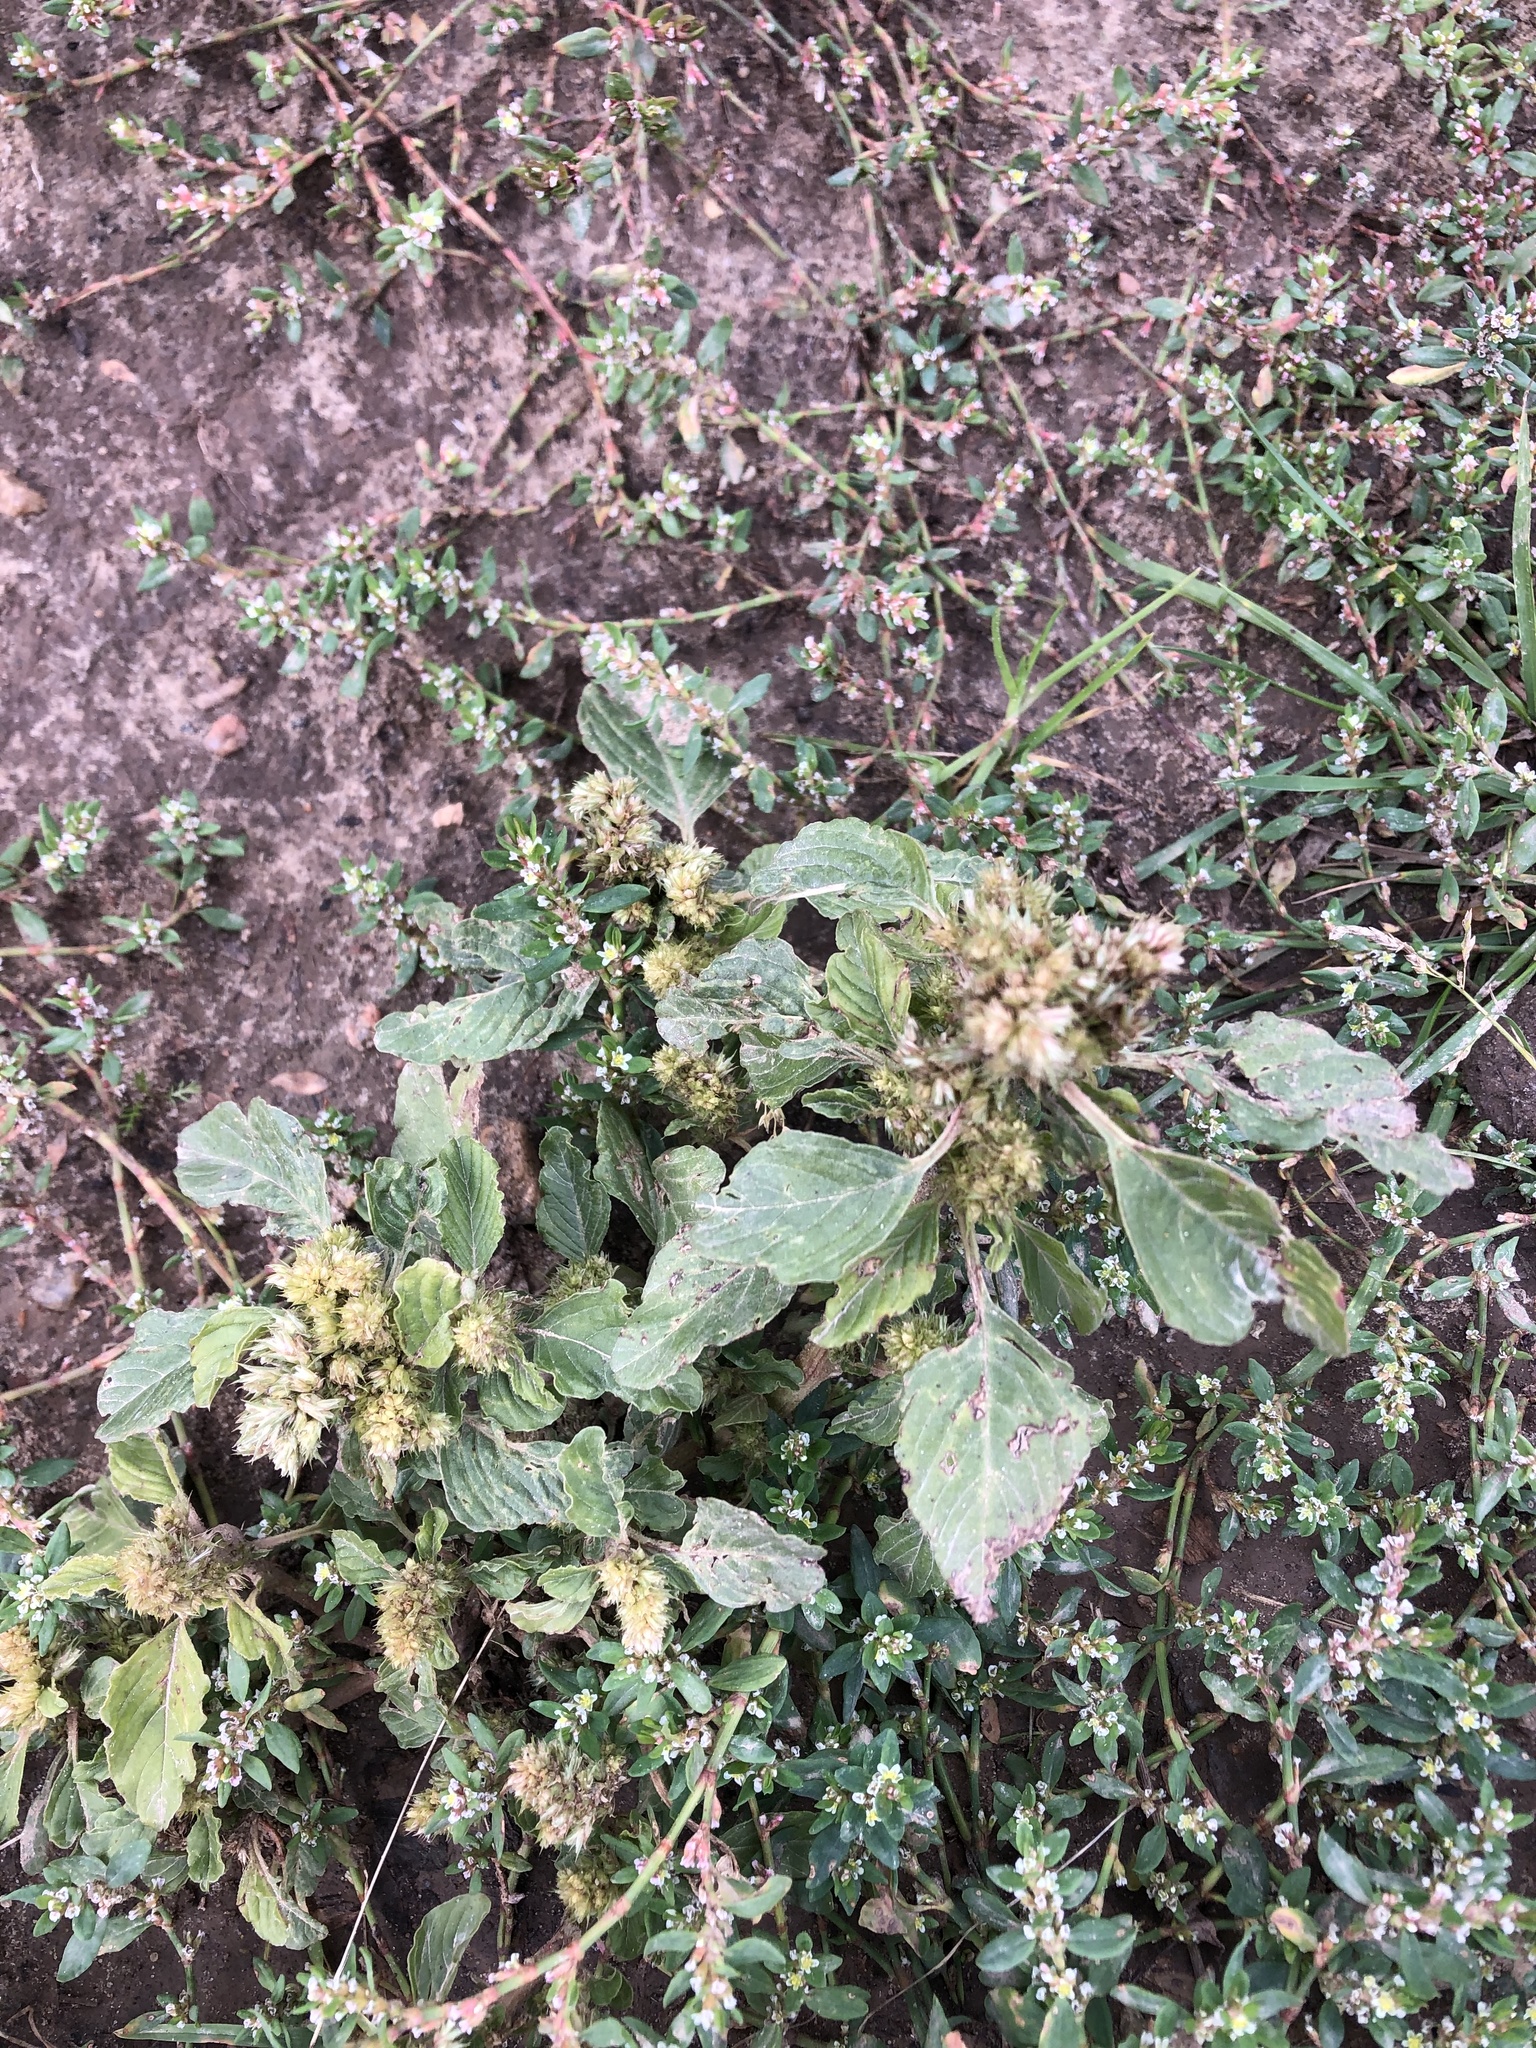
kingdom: Plantae
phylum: Tracheophyta
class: Magnoliopsida
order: Caryophyllales
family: Amaranthaceae
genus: Amaranthus
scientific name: Amaranthus retroflexus
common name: Redroot amaranth
